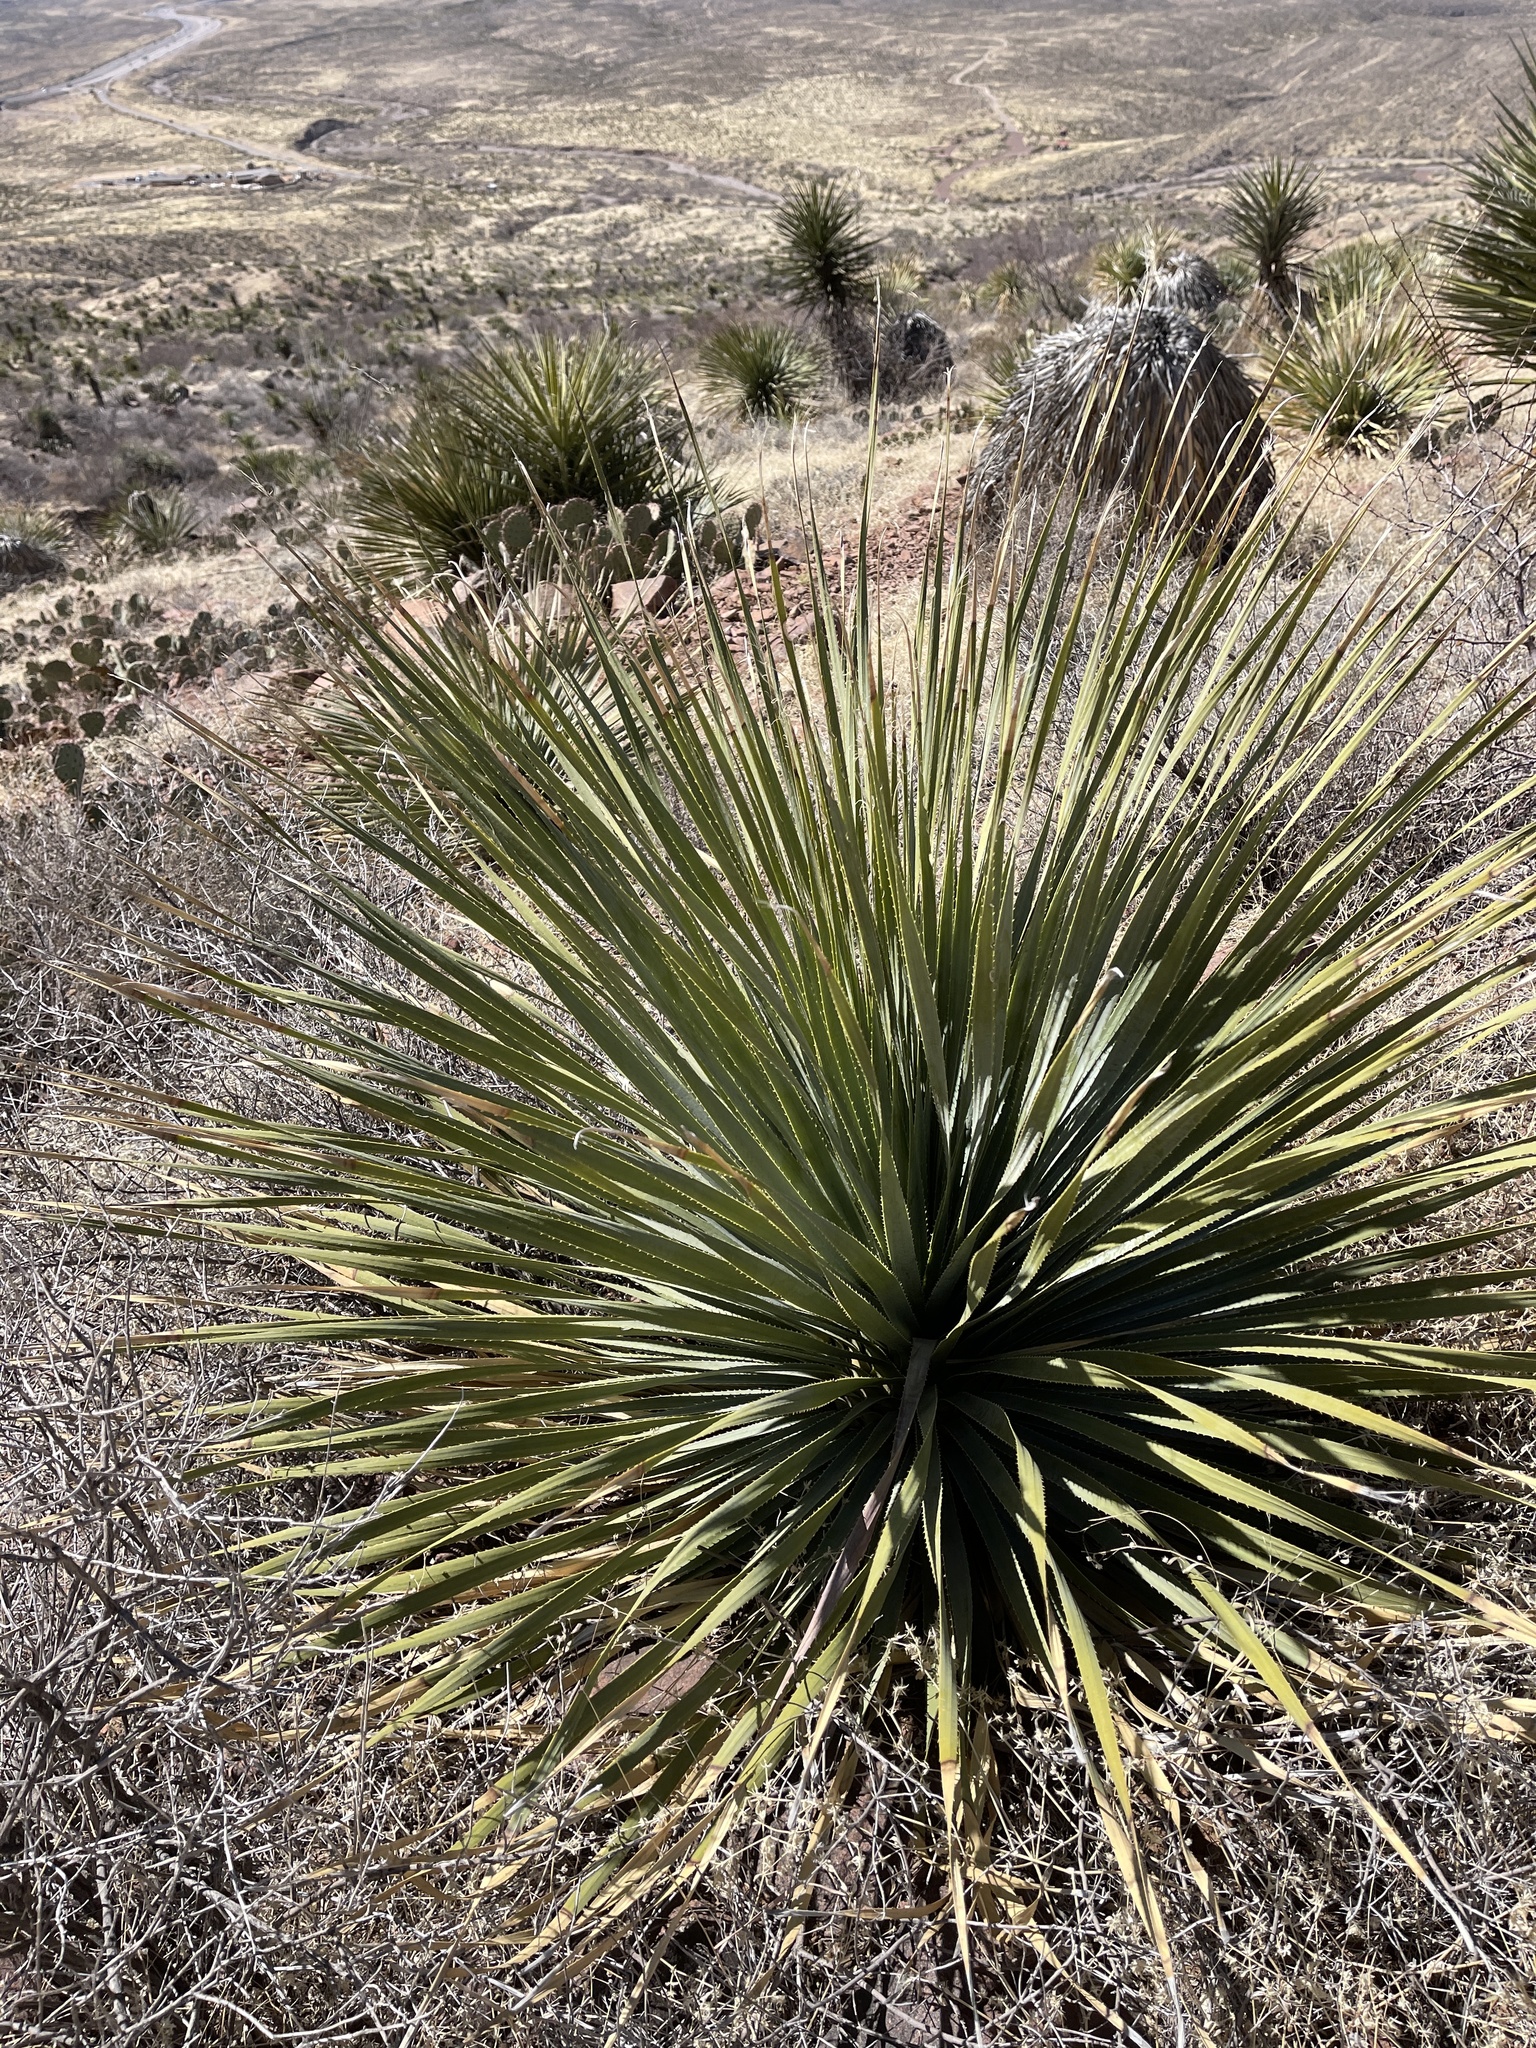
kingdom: Plantae
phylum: Tracheophyta
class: Liliopsida
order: Asparagales
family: Asparagaceae
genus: Dasylirion
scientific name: Dasylirion wheeleri
